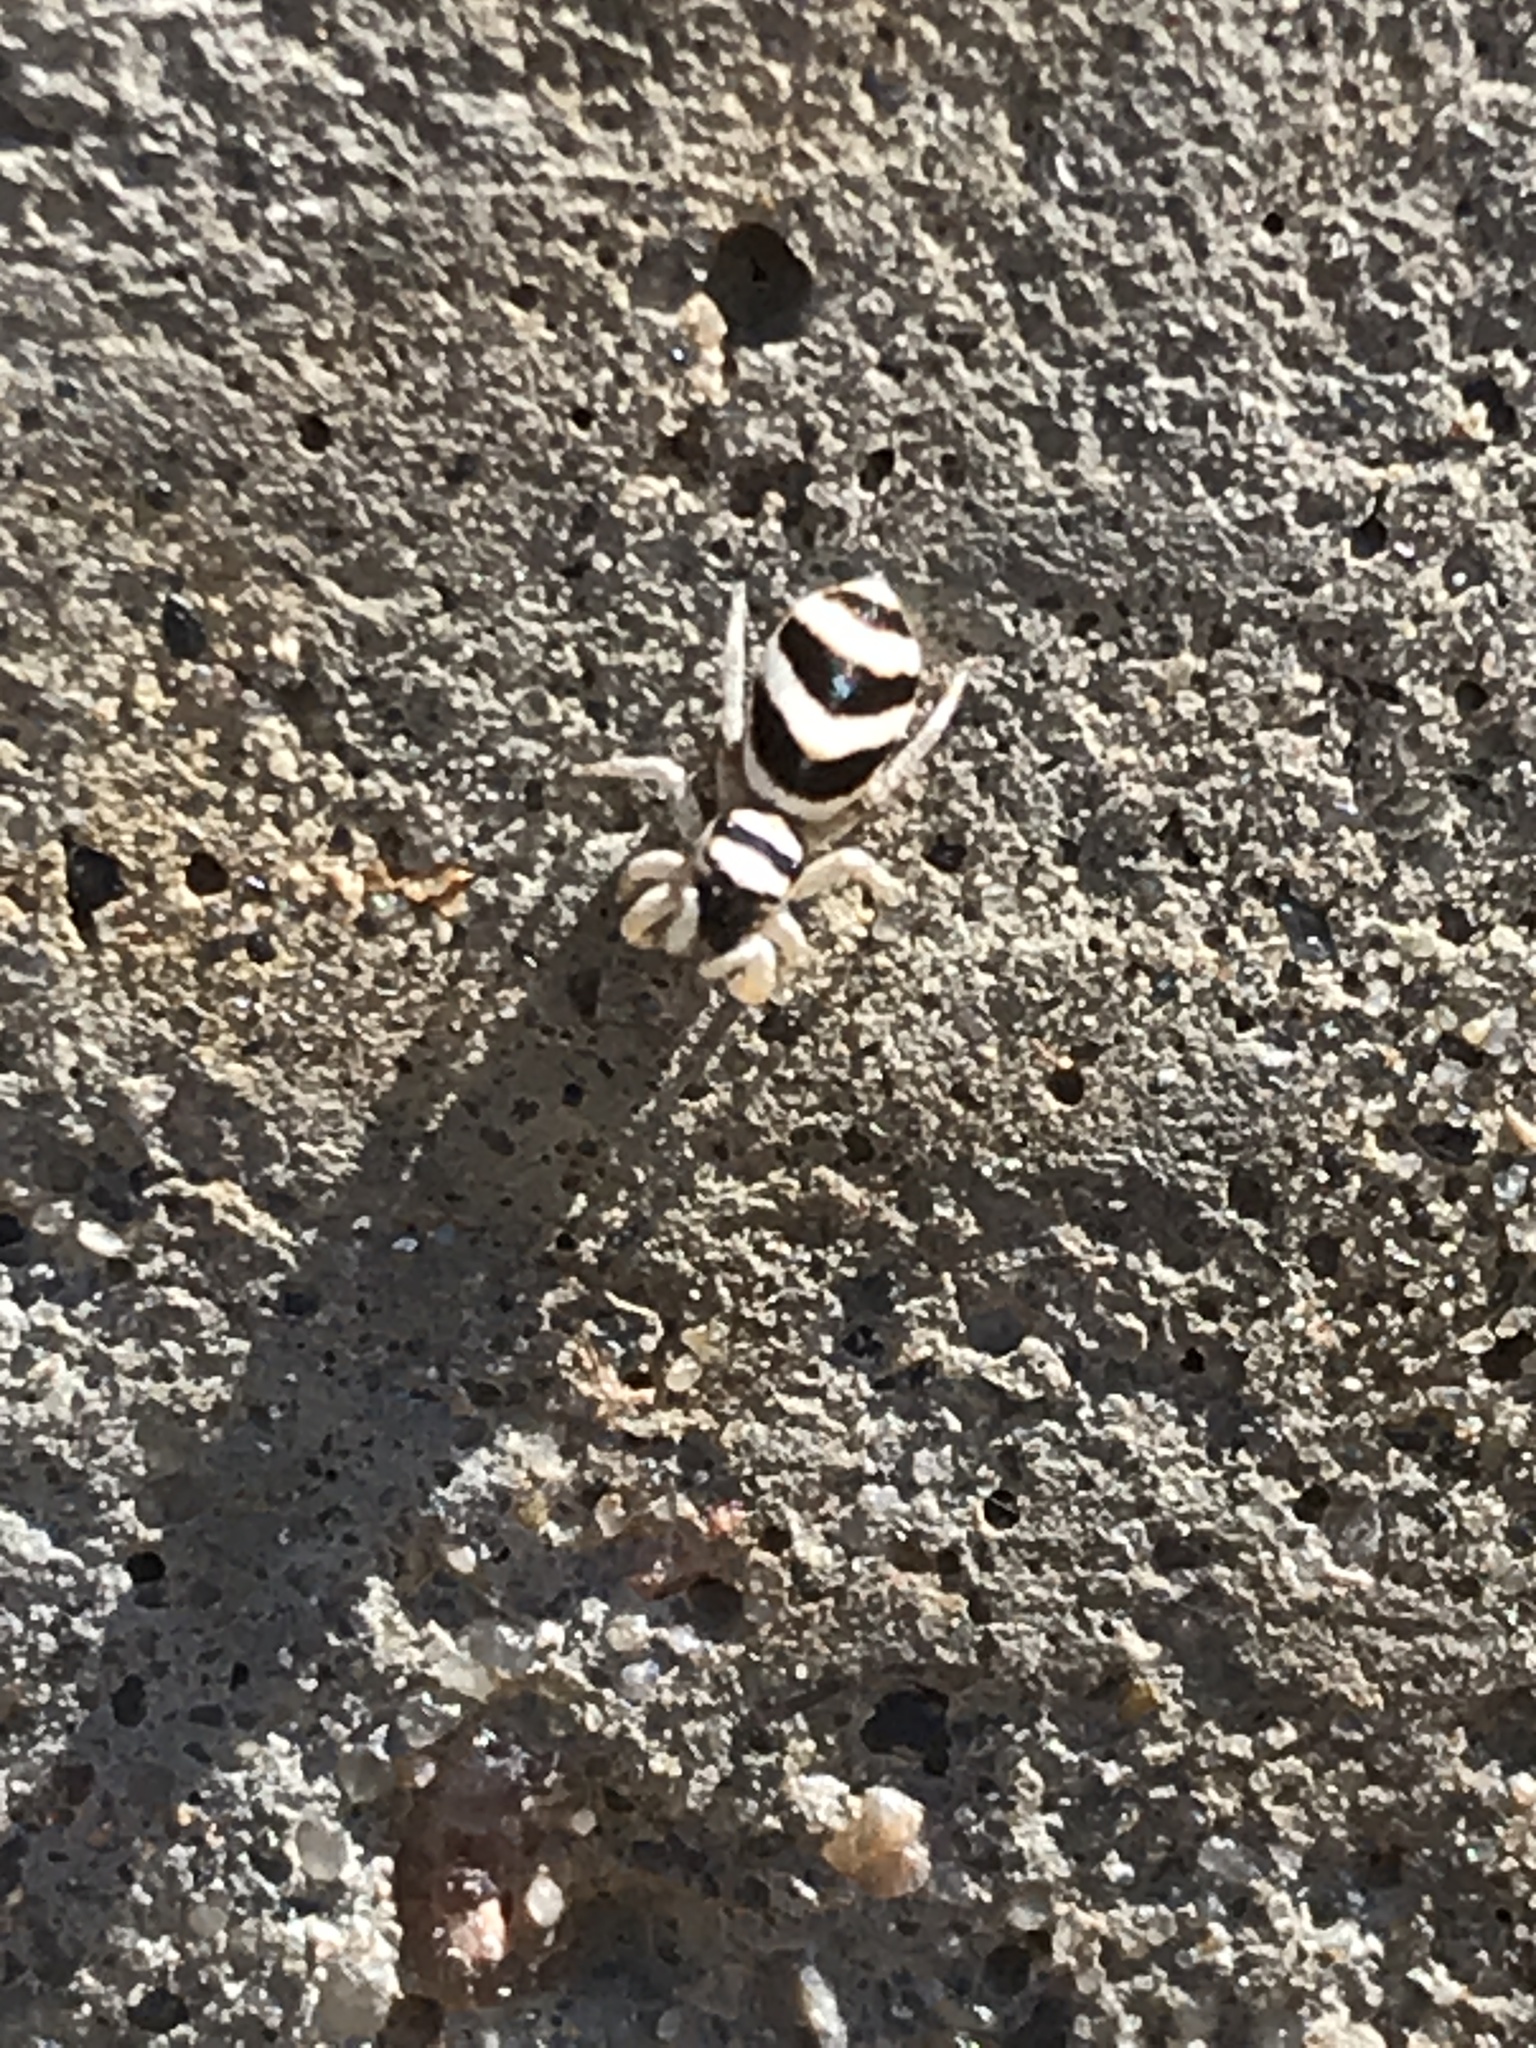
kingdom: Animalia
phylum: Arthropoda
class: Arachnida
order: Araneae
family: Salticidae
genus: Salticus
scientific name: Salticus austinensis
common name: Jumping spiders
